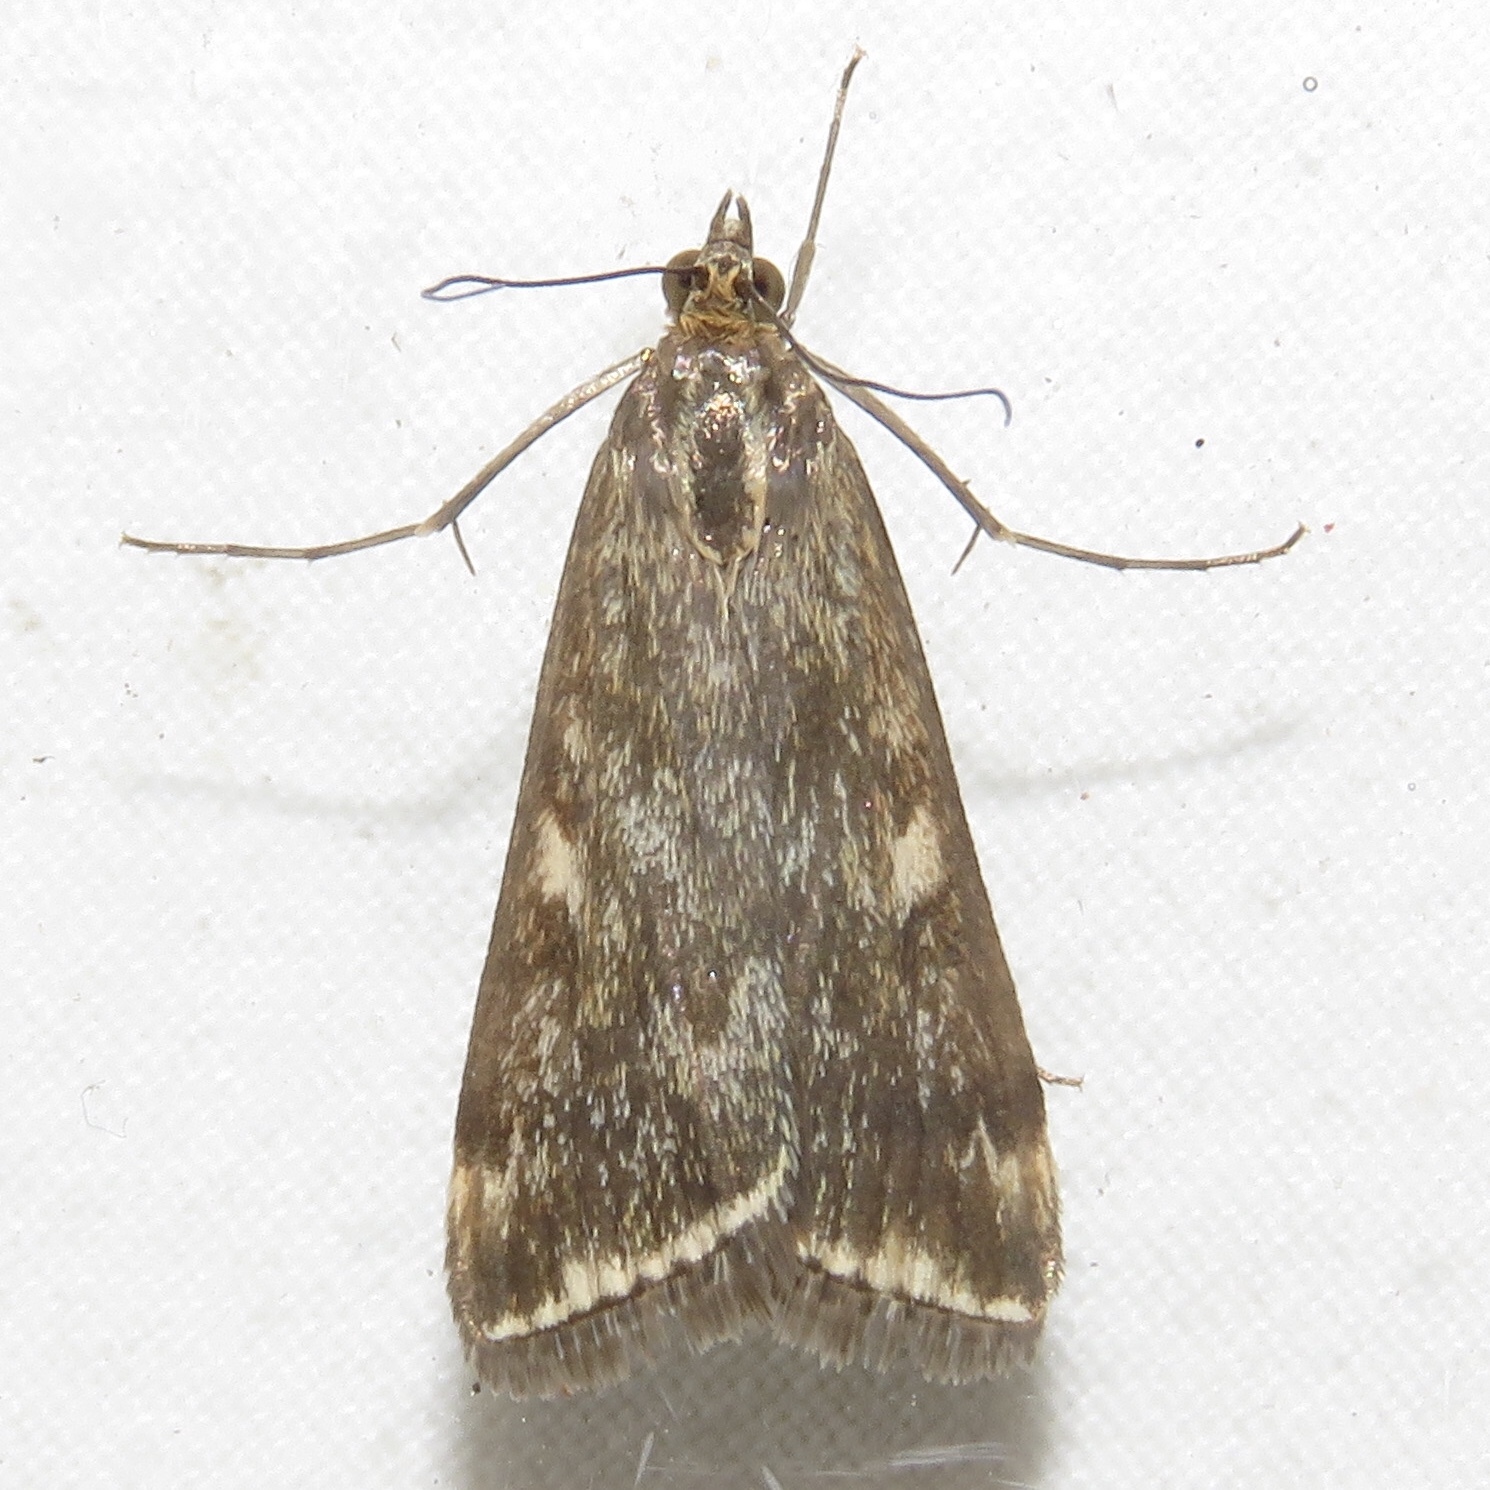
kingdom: Animalia
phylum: Arthropoda
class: Insecta
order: Lepidoptera
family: Crambidae
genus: Loxostege
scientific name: Loxostege
